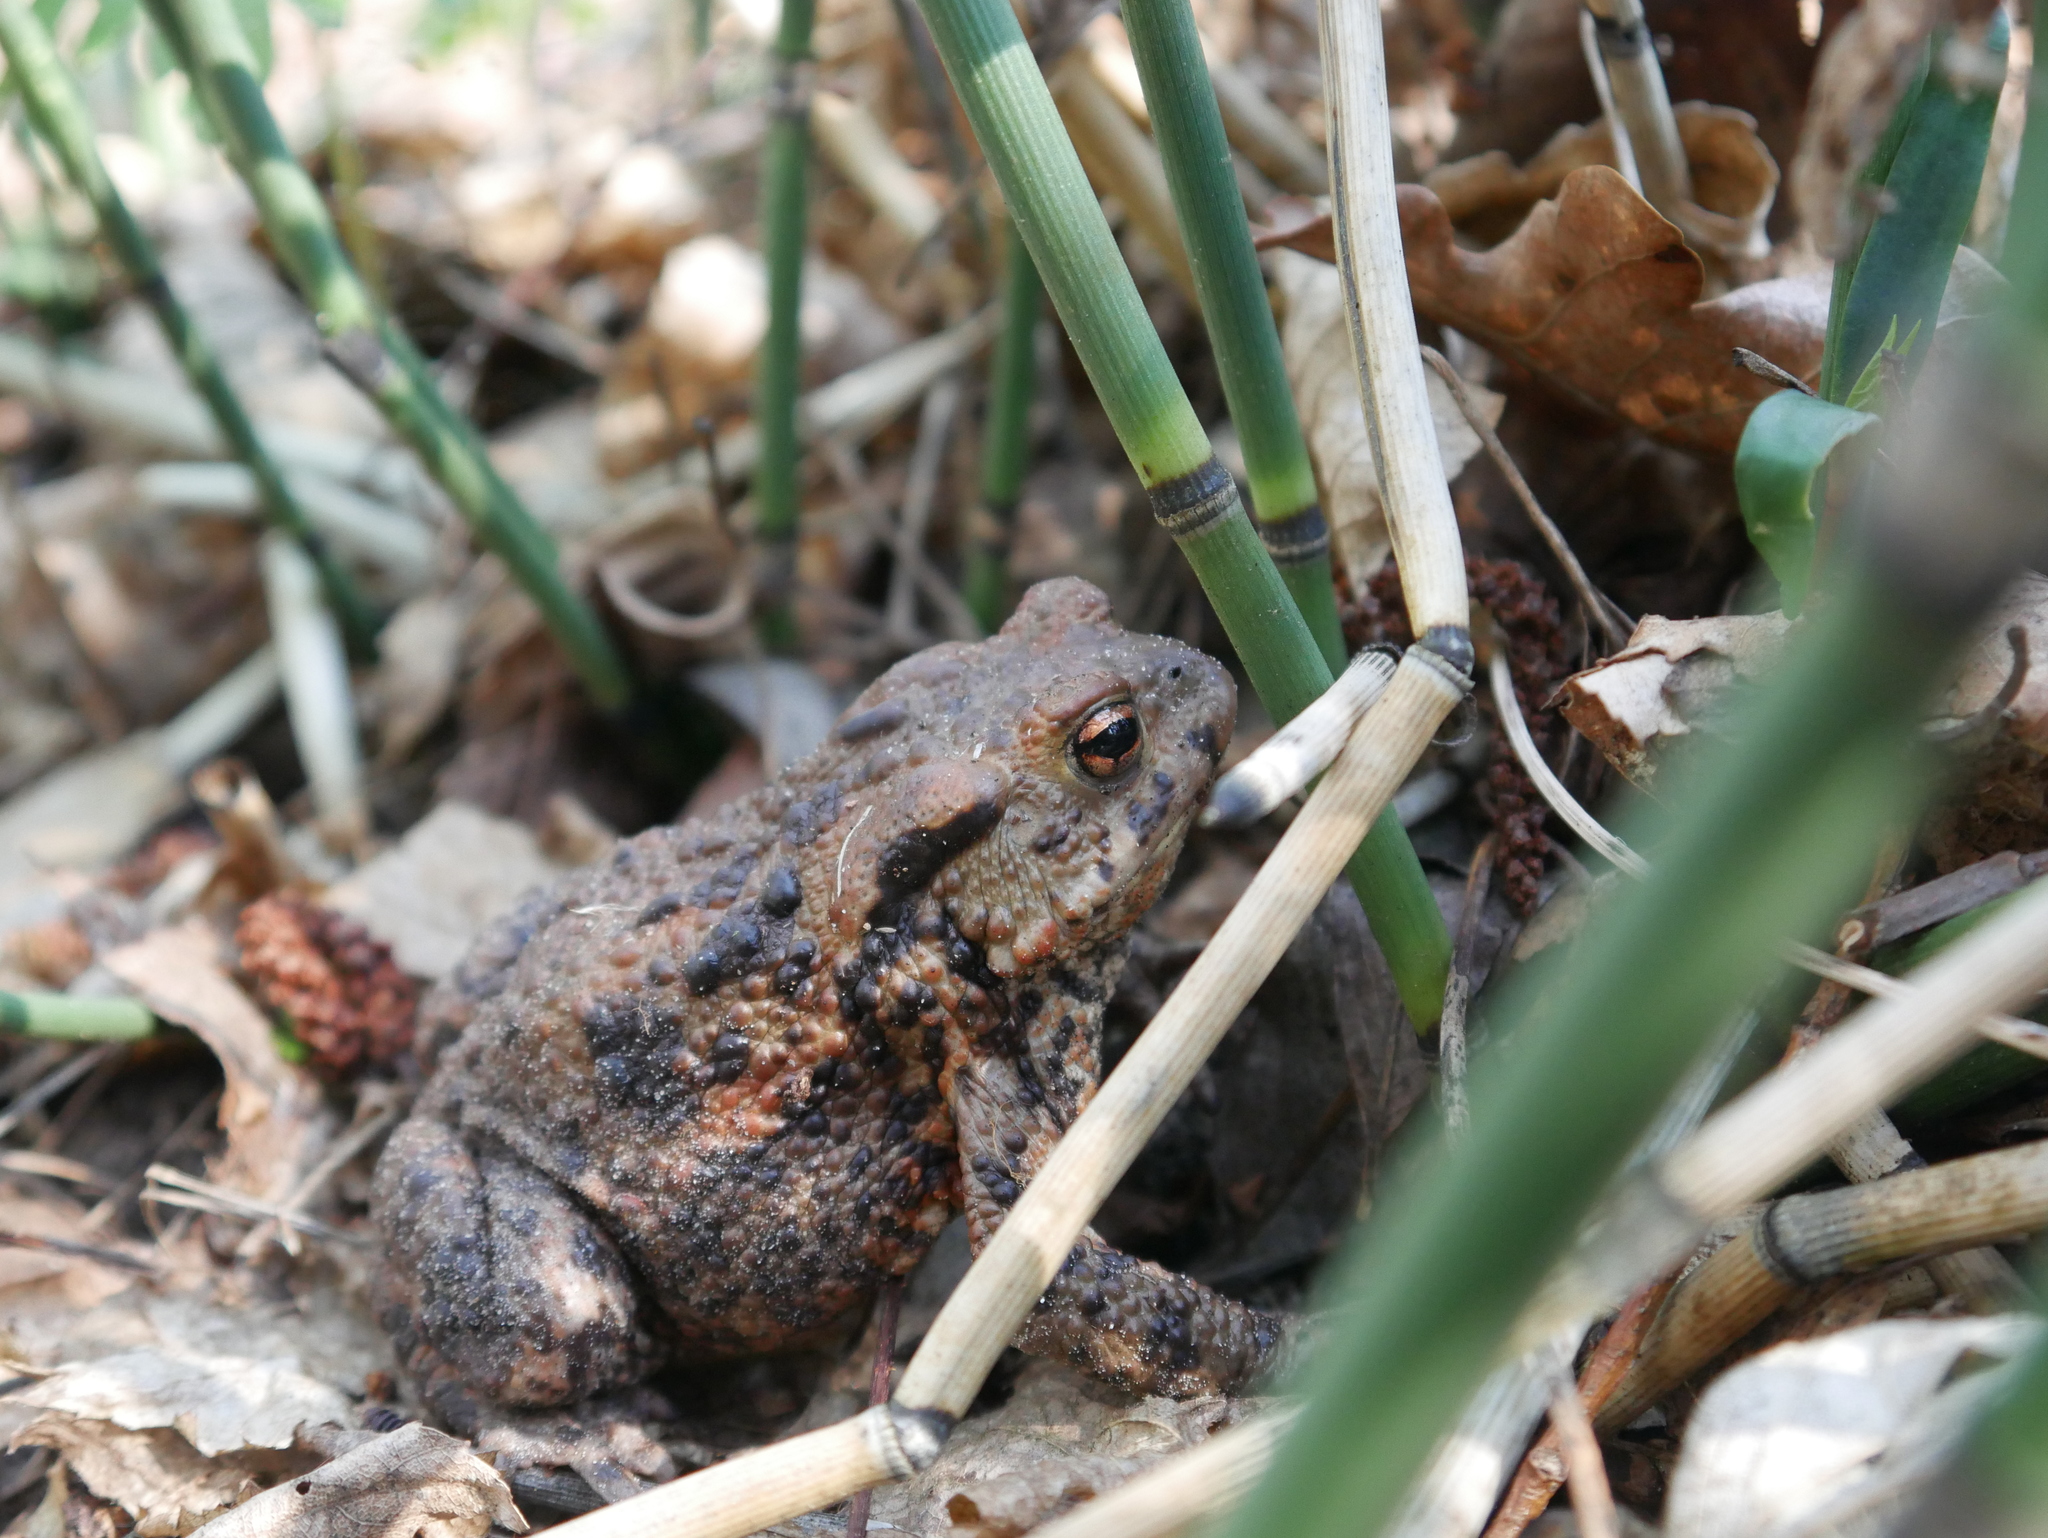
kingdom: Animalia
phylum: Chordata
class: Amphibia
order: Anura
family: Bufonidae
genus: Bufo
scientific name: Bufo bufo
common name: Common toad
